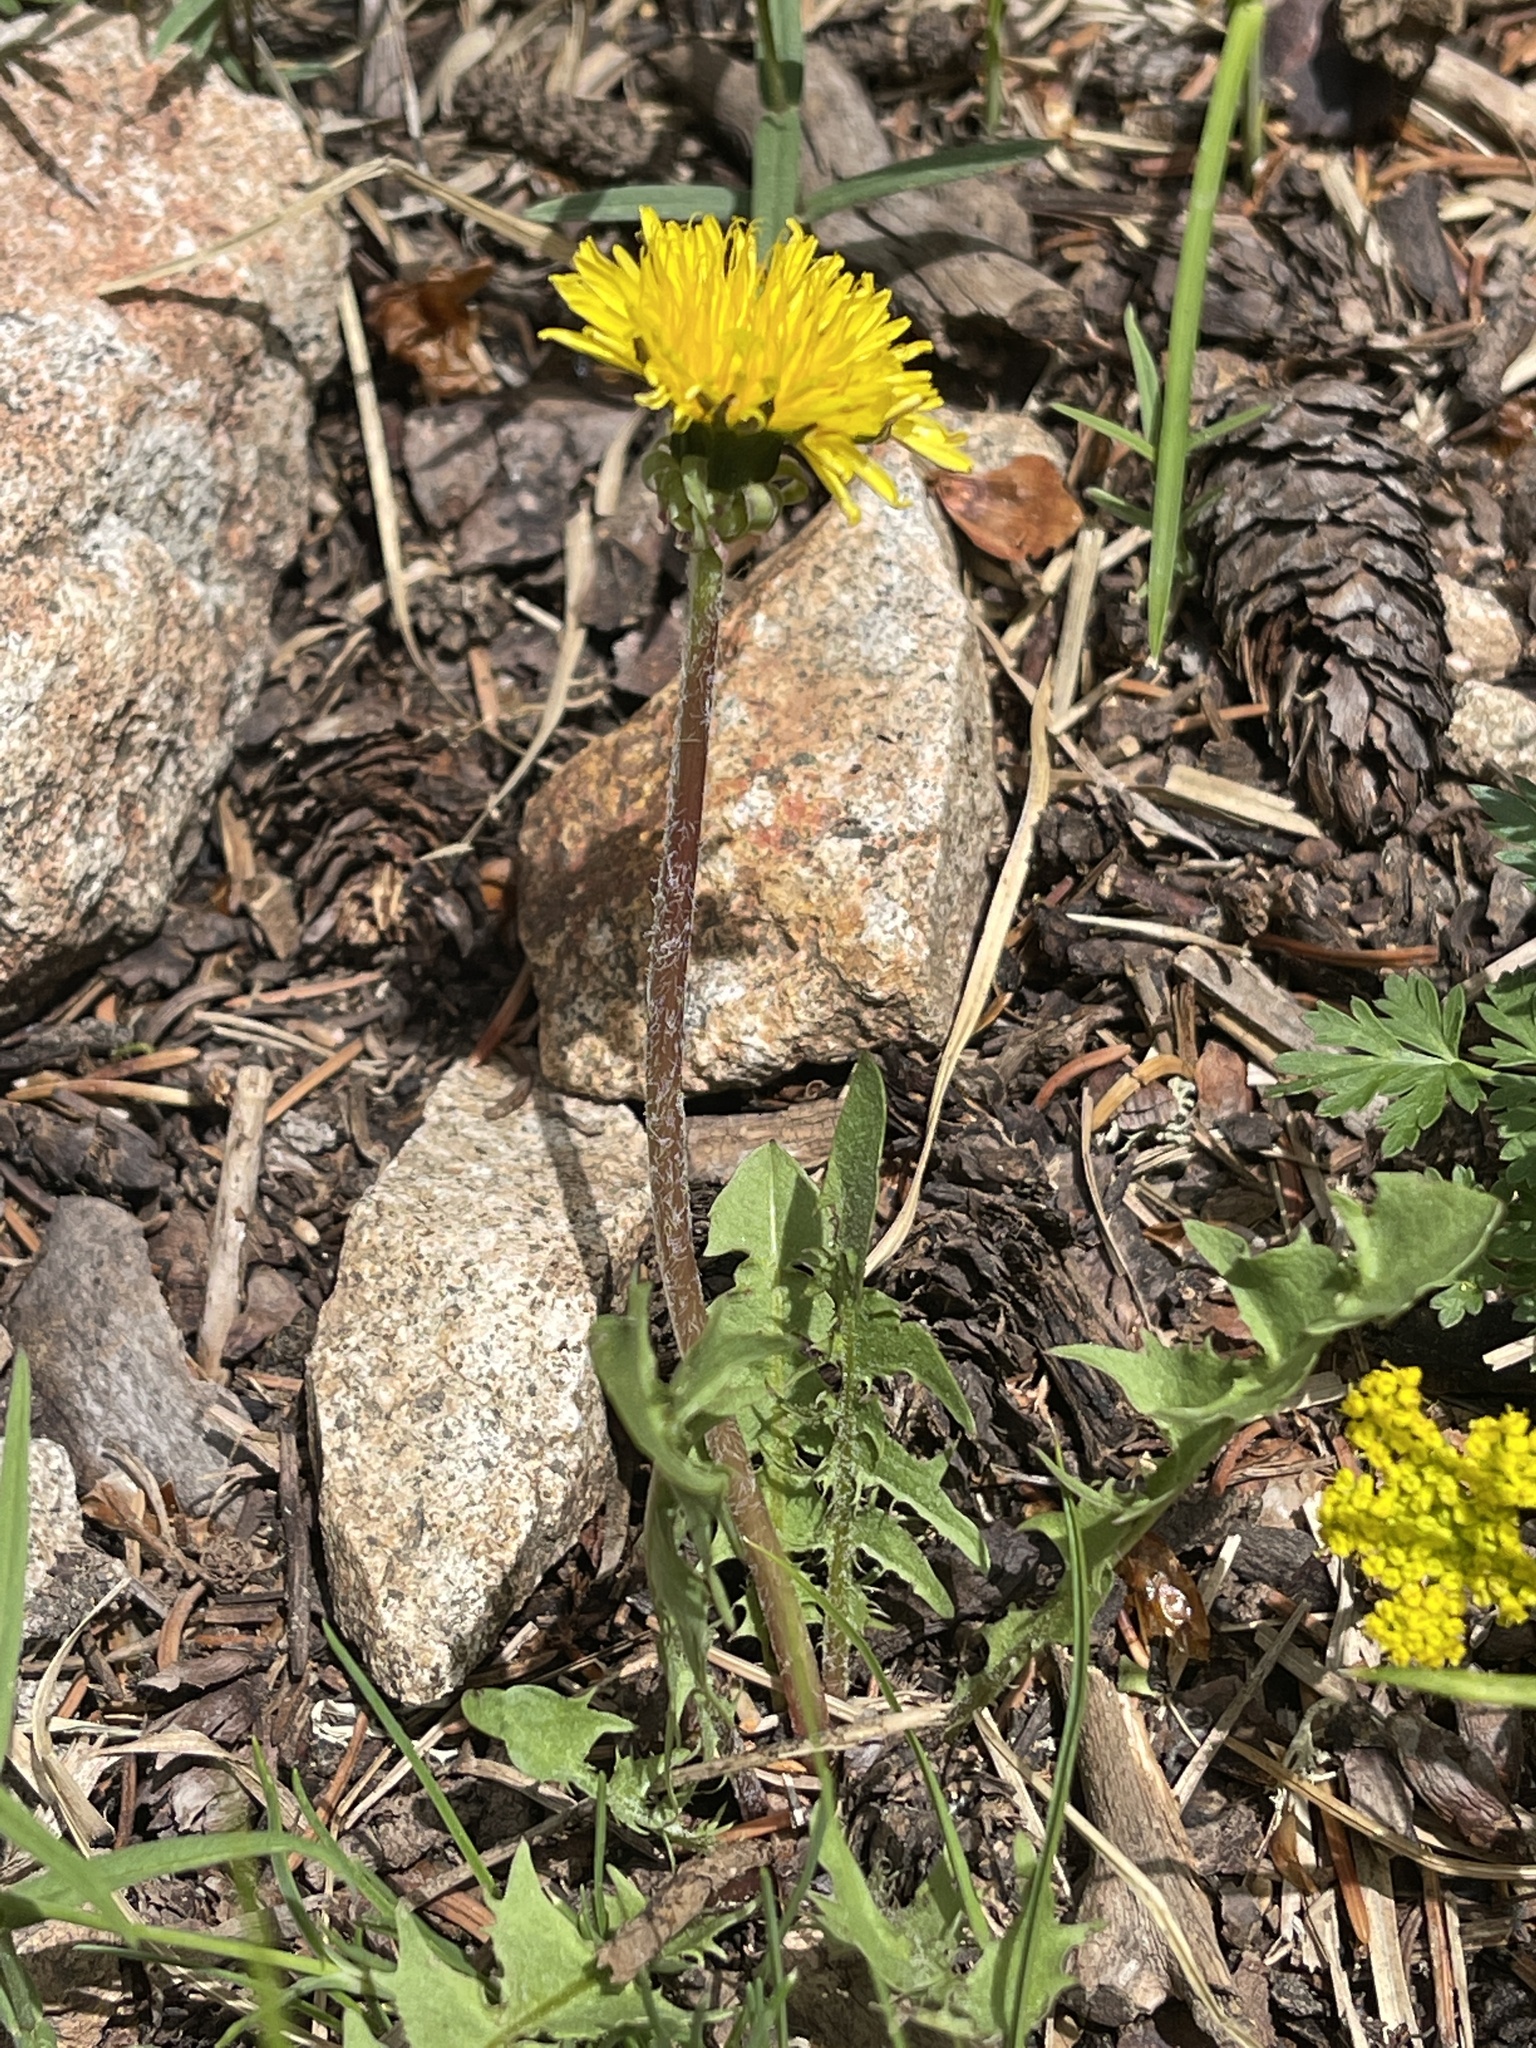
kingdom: Plantae
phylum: Tracheophyta
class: Magnoliopsida
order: Asterales
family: Asteraceae
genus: Taraxacum
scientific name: Taraxacum officinale
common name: Common dandelion
